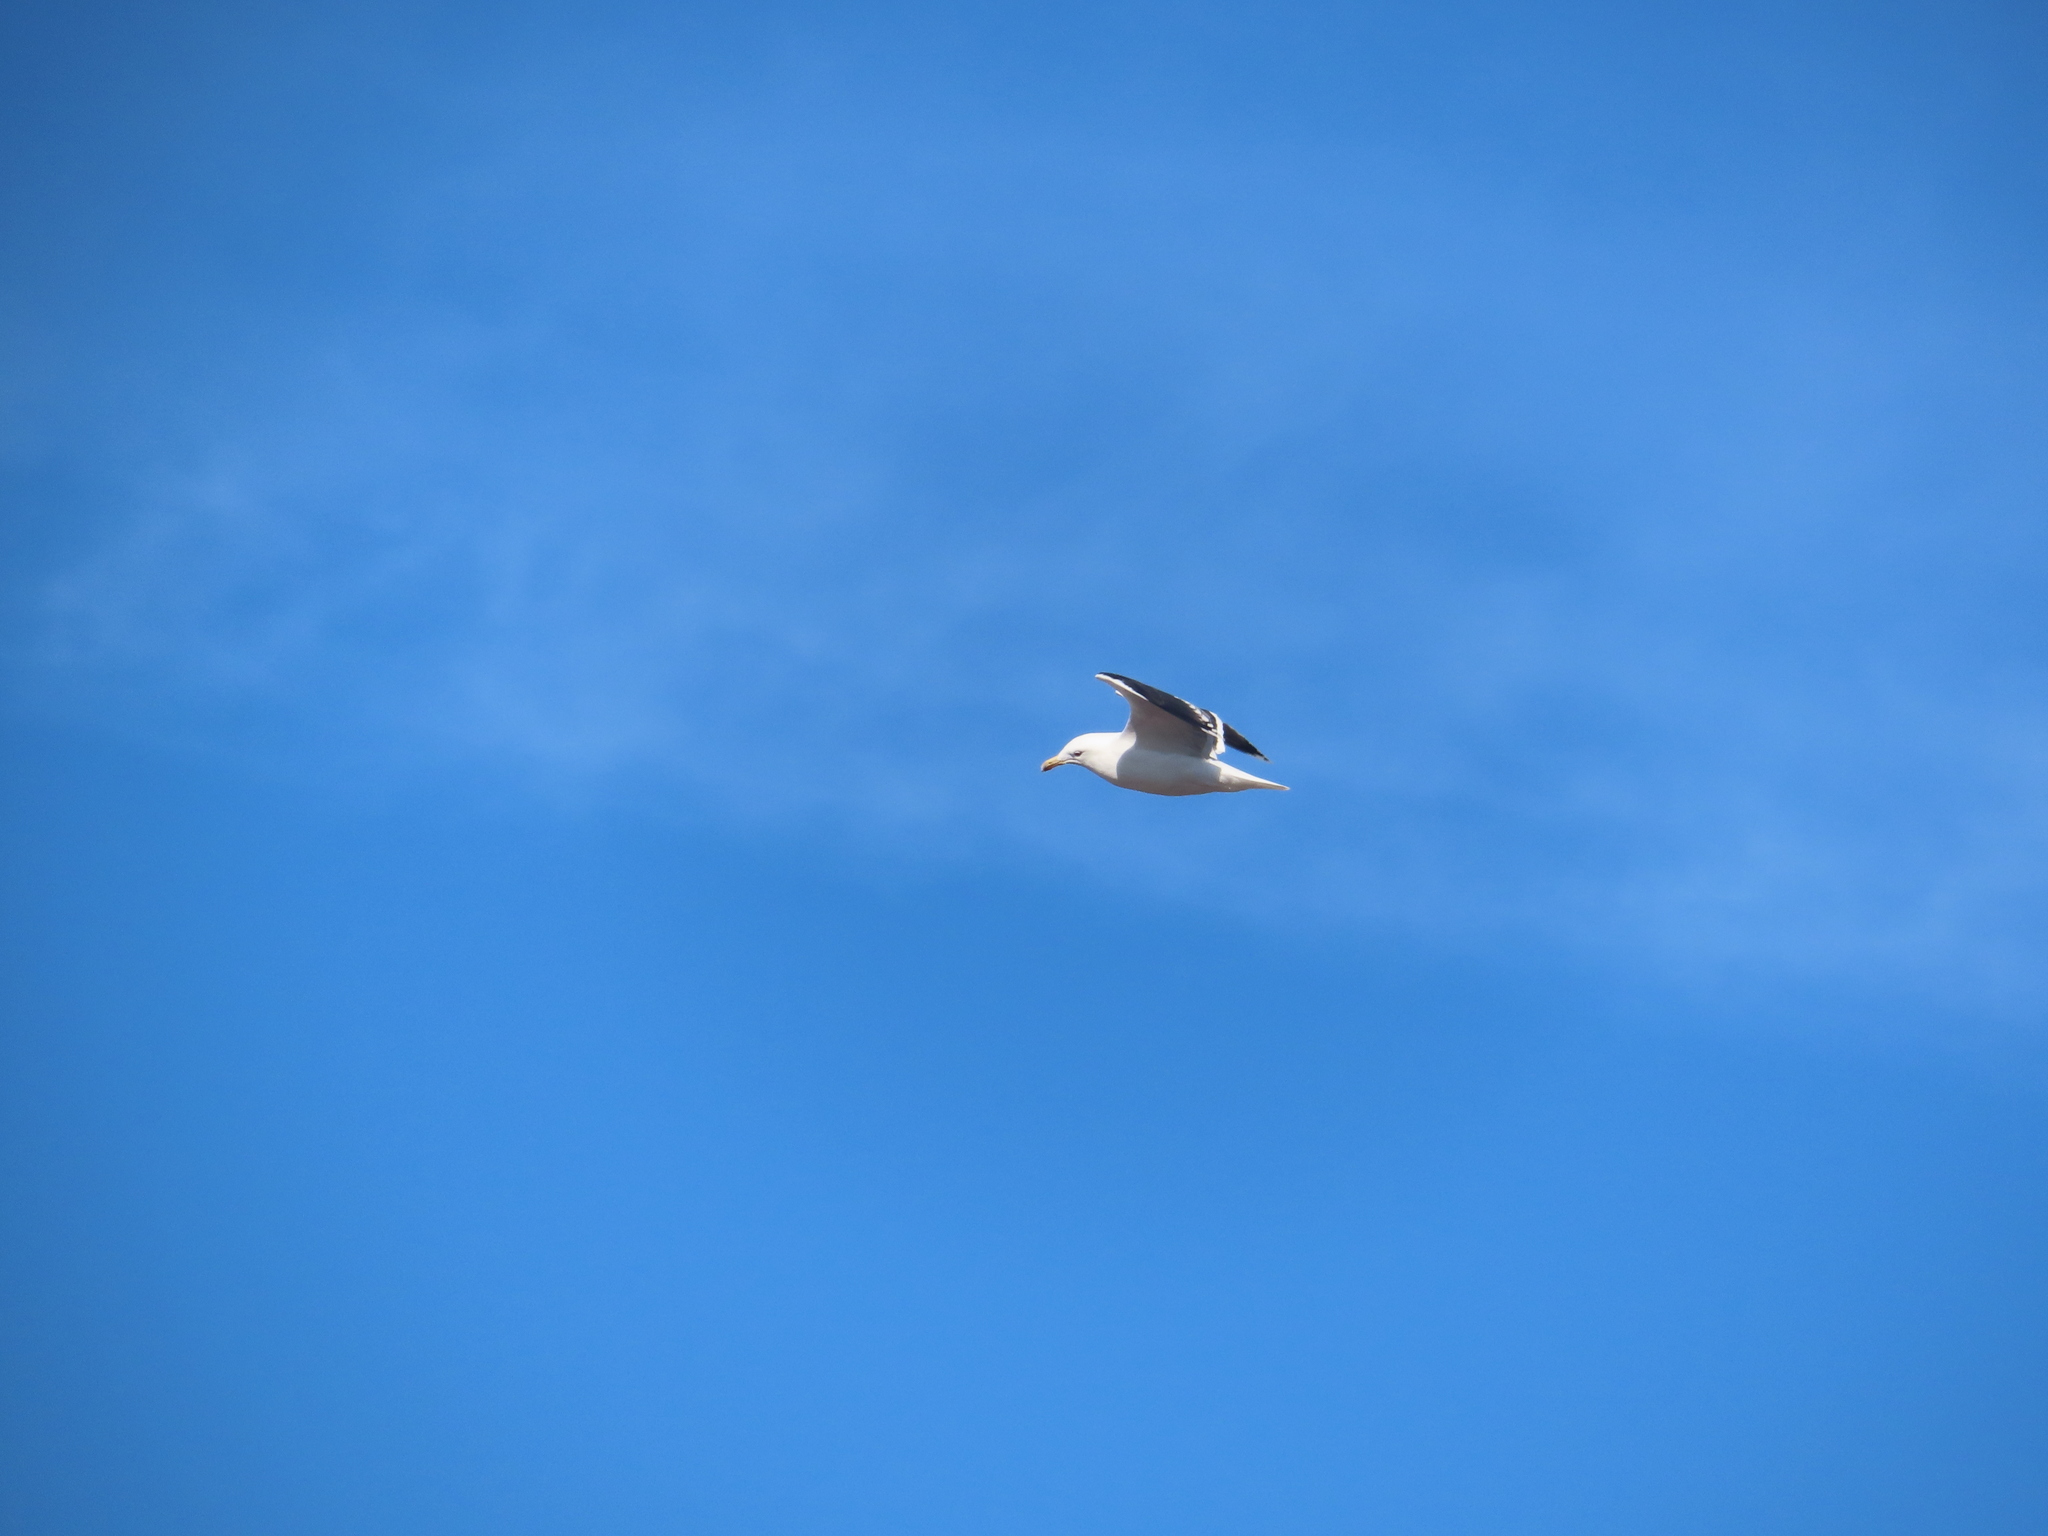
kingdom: Animalia
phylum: Chordata
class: Aves
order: Charadriiformes
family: Laridae
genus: Larus
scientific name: Larus marinus
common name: Great black-backed gull
